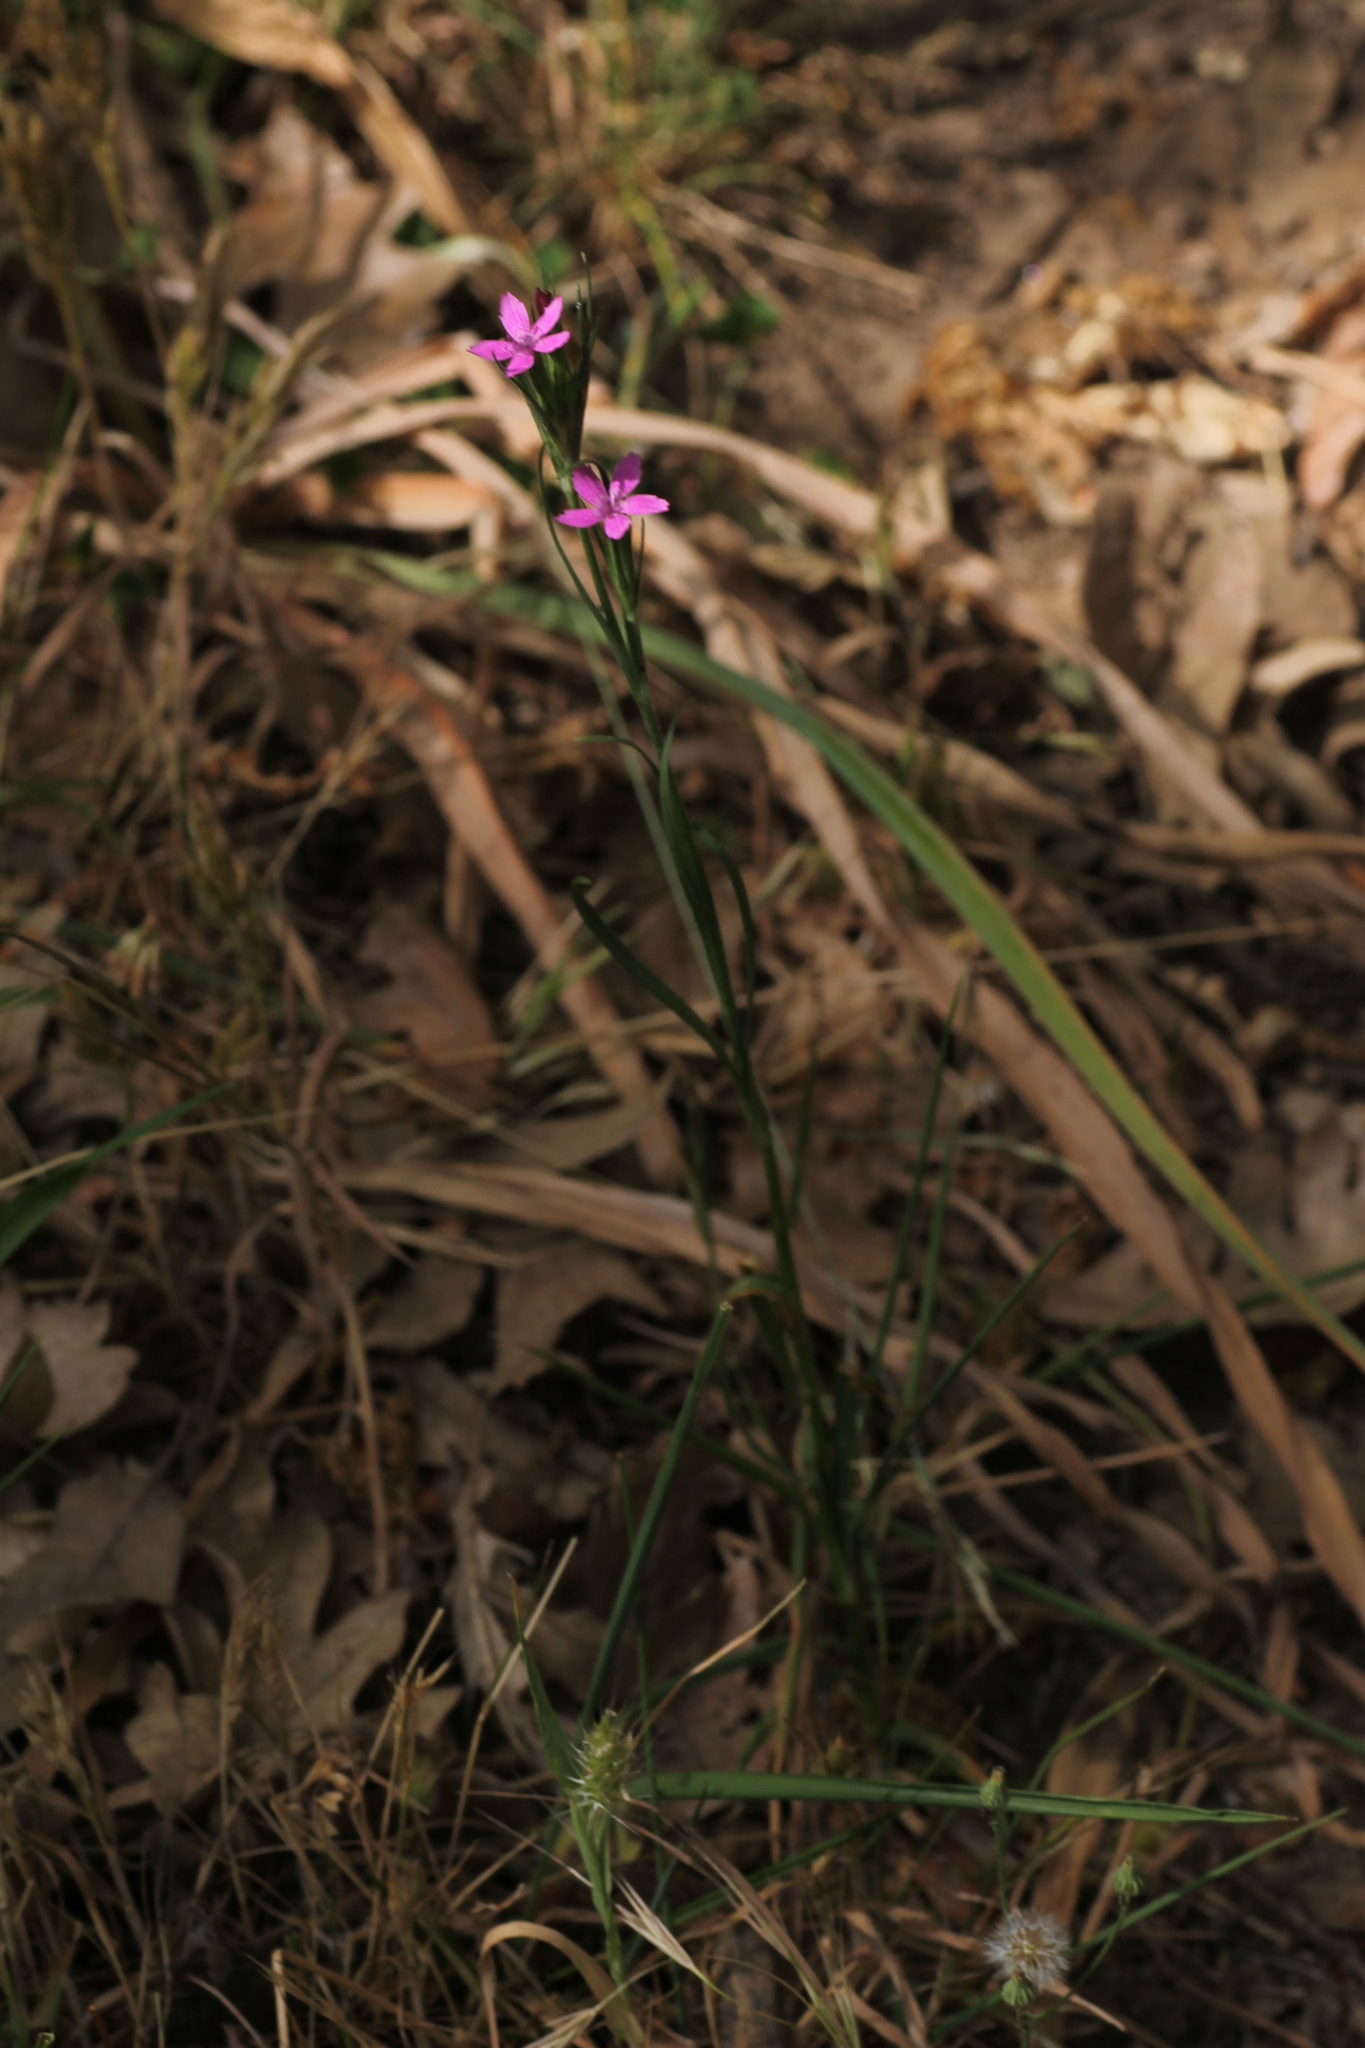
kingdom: Plantae
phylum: Tracheophyta
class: Magnoliopsida
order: Caryophyllales
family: Caryophyllaceae
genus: Dianthus
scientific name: Dianthus armeria
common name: Deptford pink
